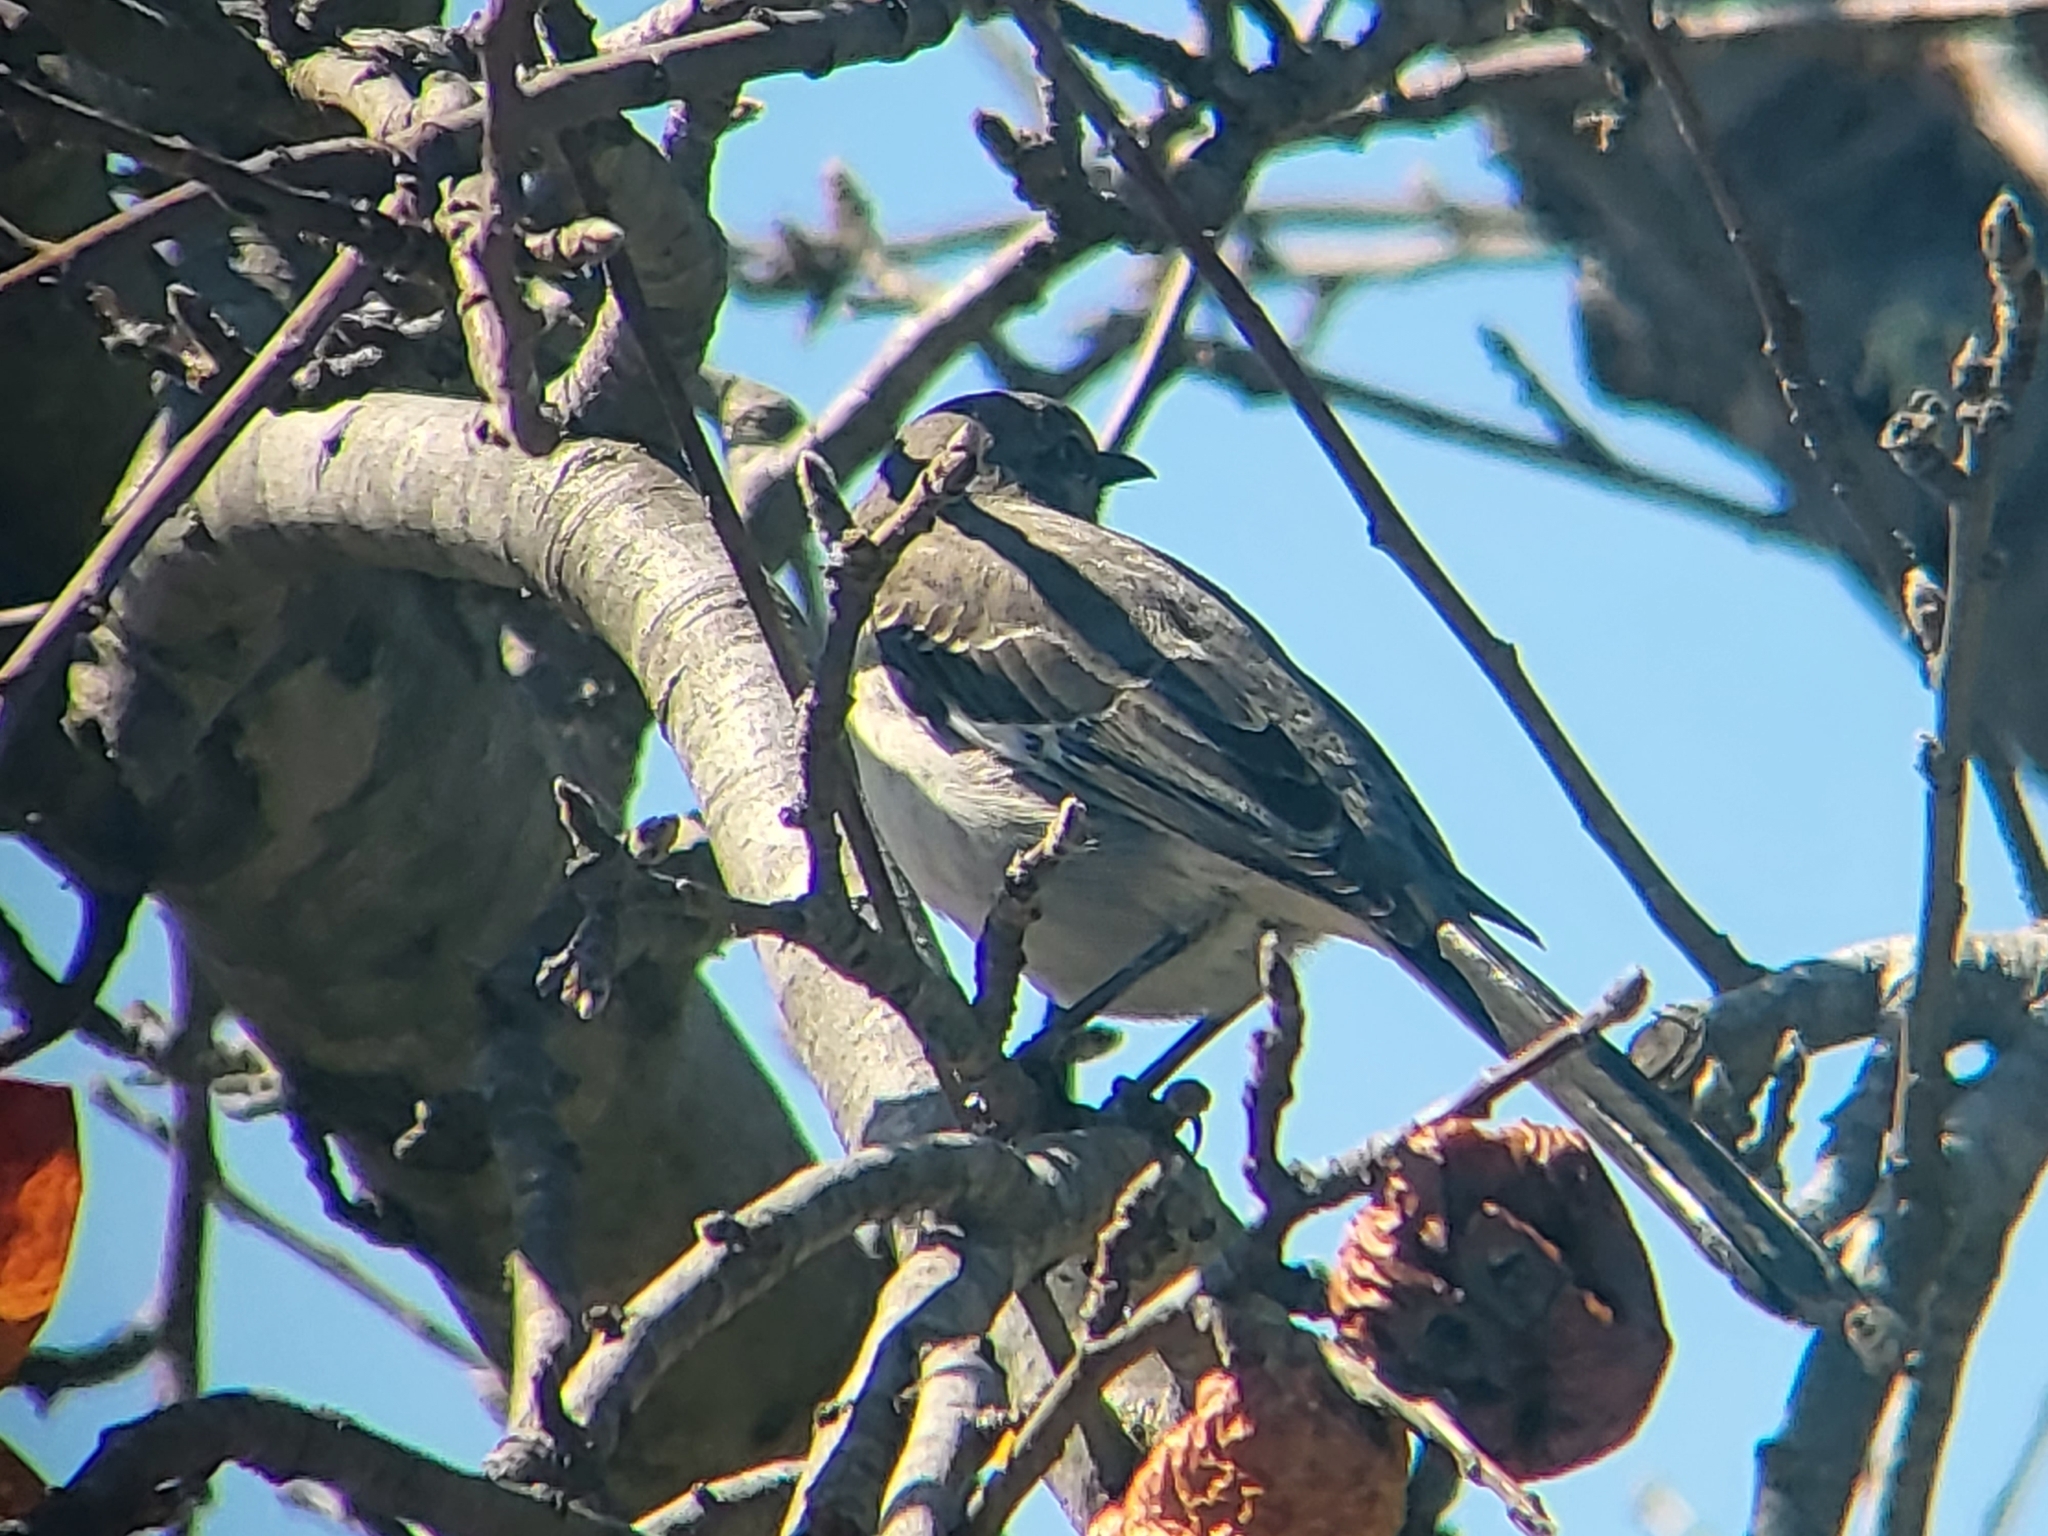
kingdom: Animalia
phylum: Chordata
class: Aves
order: Passeriformes
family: Mimidae
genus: Mimus
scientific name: Mimus polyglottos
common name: Northern mockingbird
